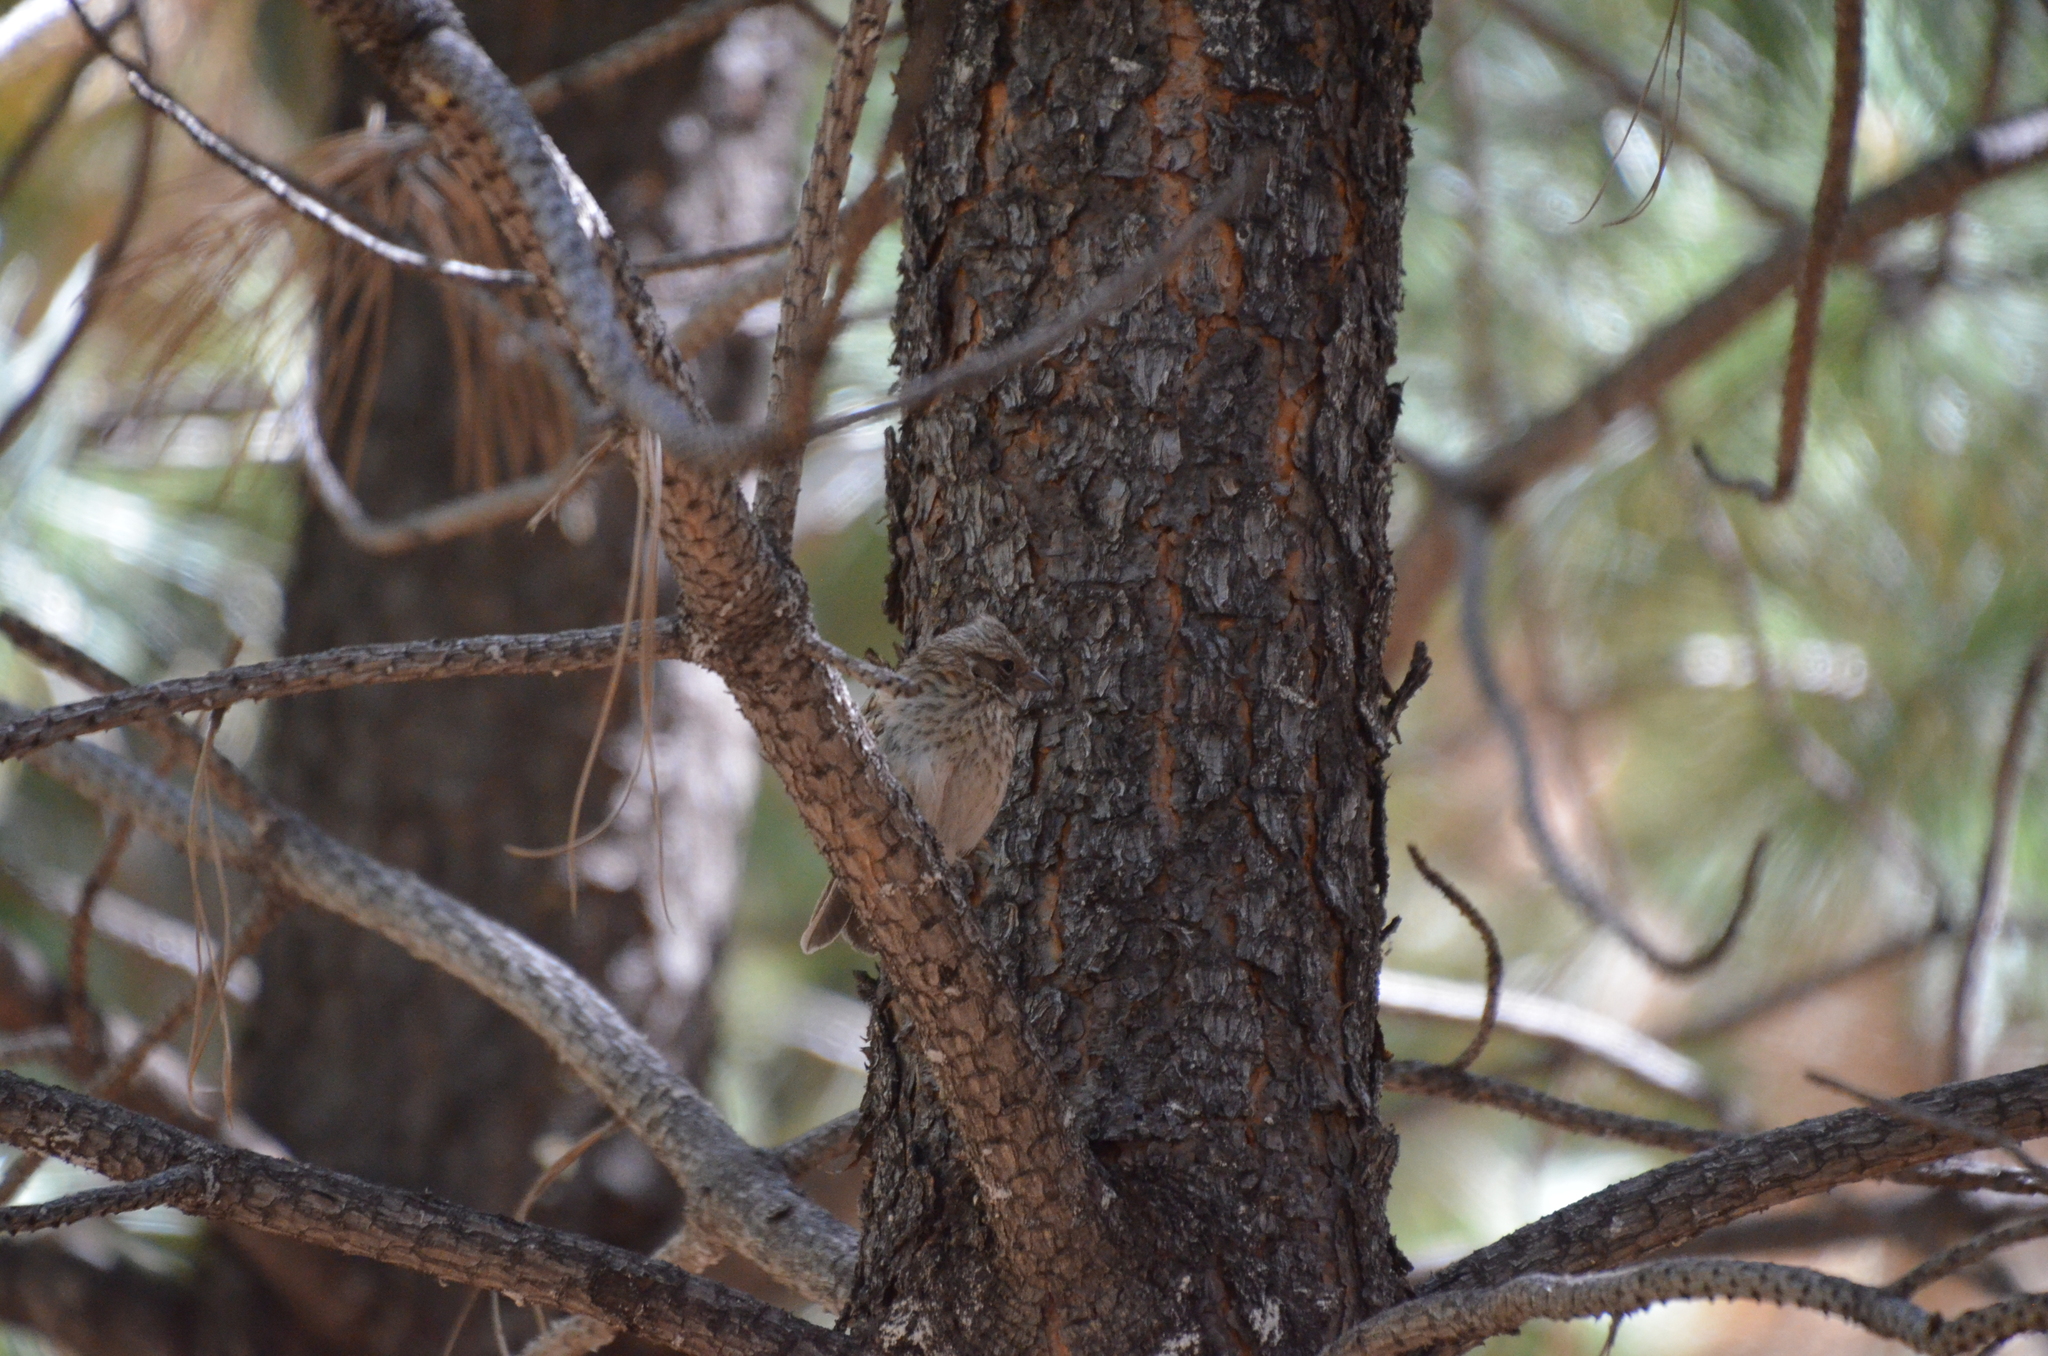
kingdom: Animalia
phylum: Chordata
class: Aves
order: Passeriformes
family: Passerellidae
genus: Zonotrichia
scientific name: Zonotrichia capensis
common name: Rufous-collared sparrow
